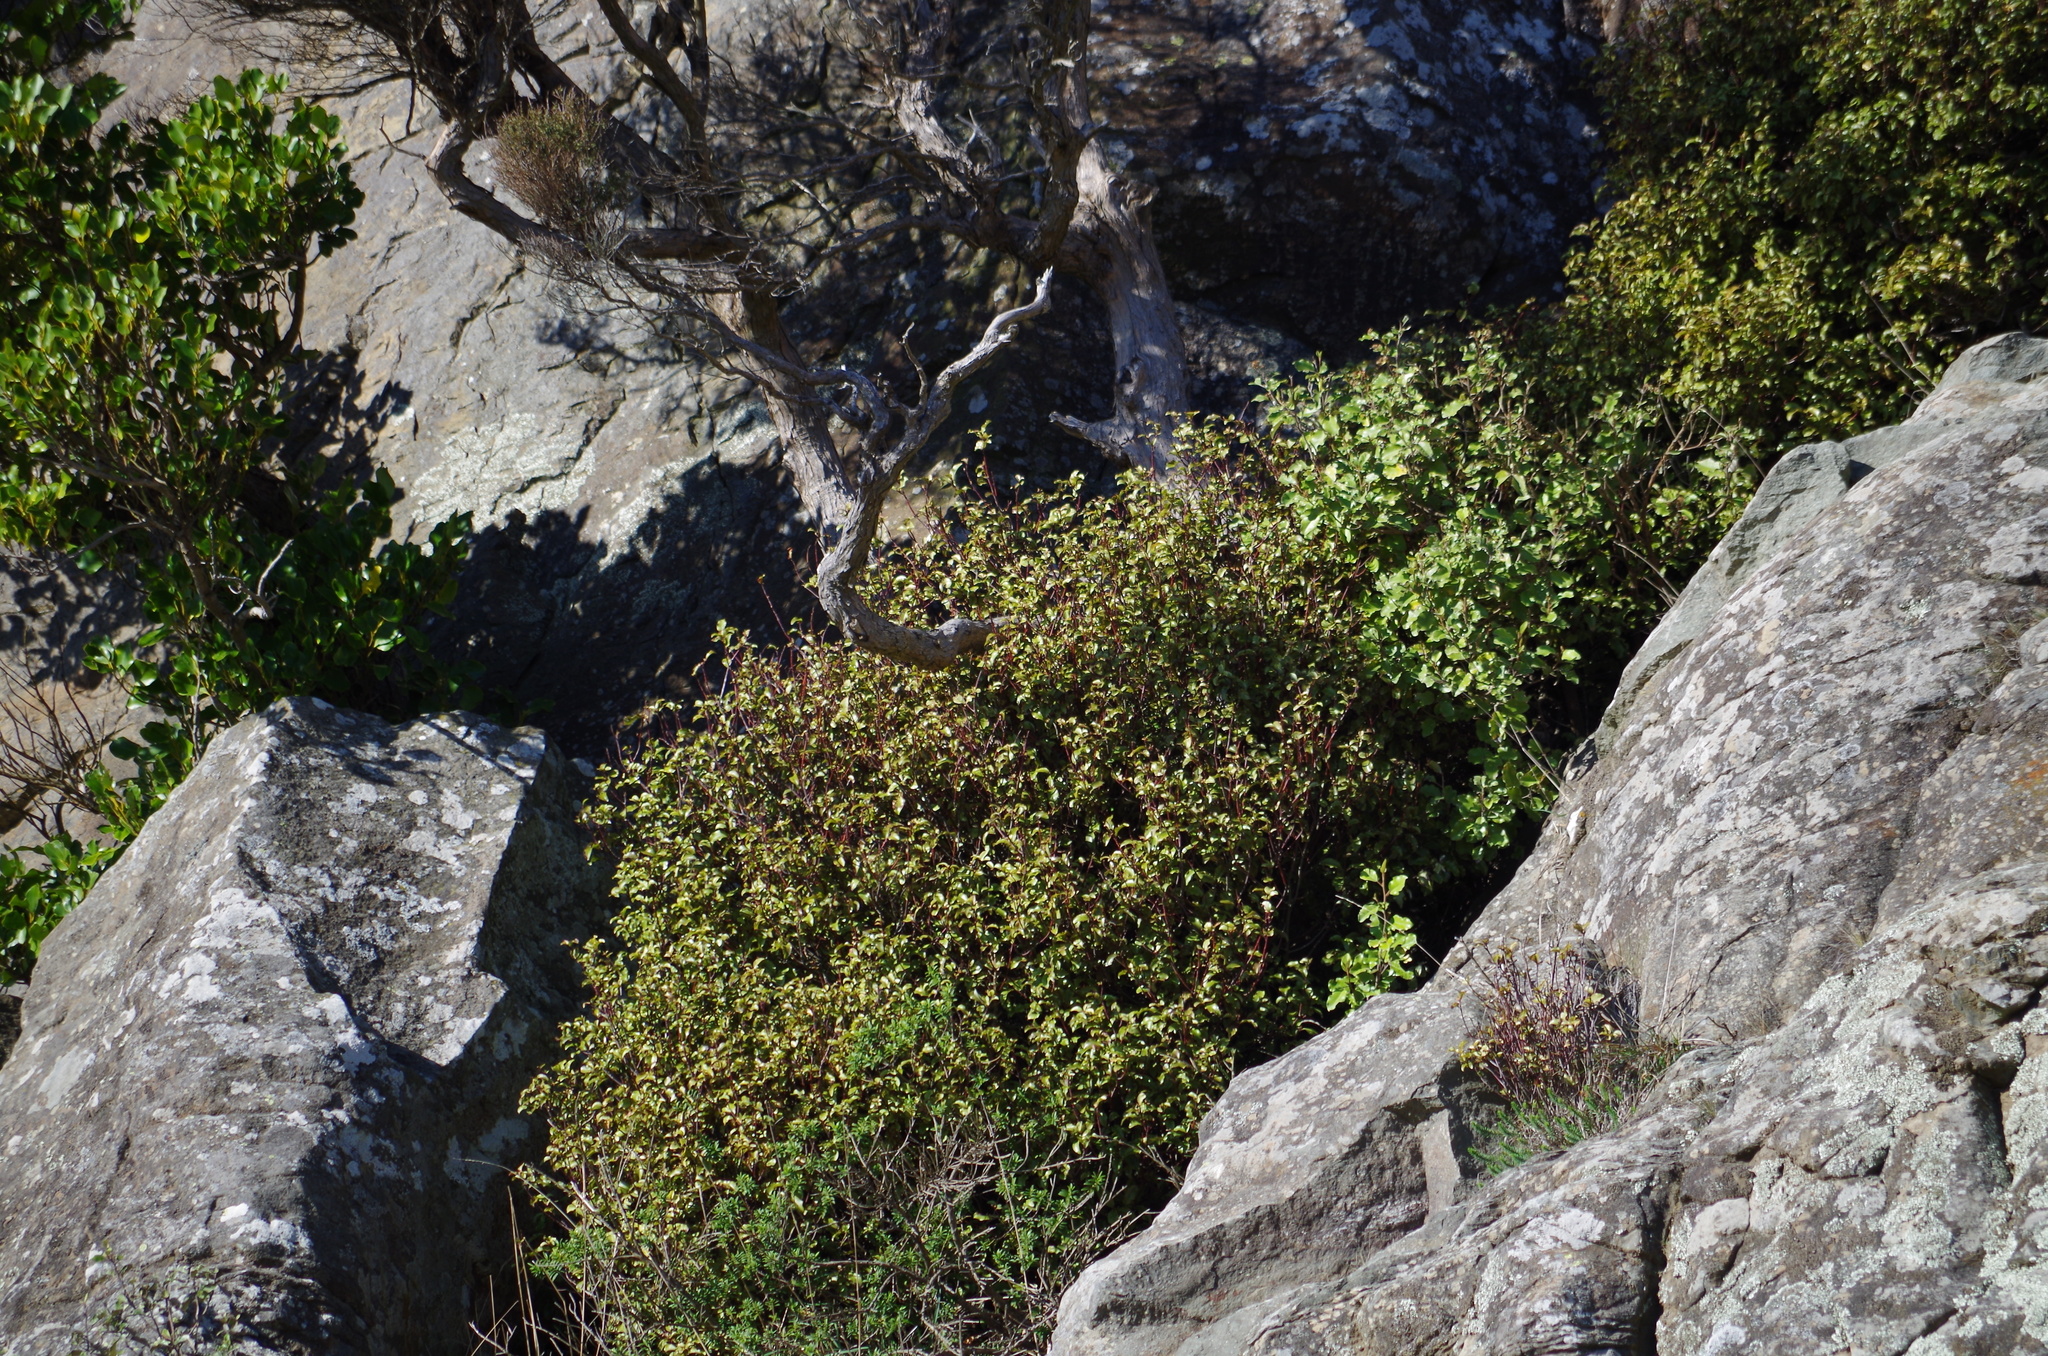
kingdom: Plantae
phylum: Tracheophyta
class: Magnoliopsida
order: Ericales
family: Primulaceae
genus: Myrsine
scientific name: Myrsine australis
